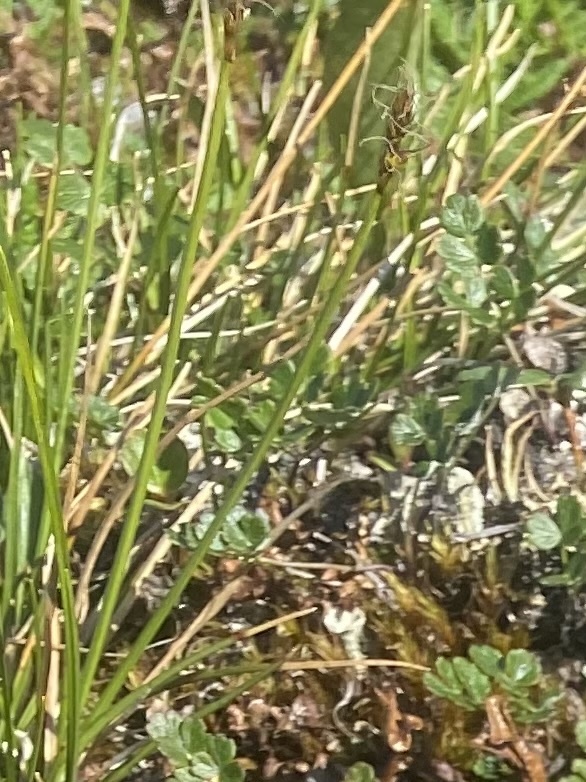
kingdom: Plantae
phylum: Tracheophyta
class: Liliopsida
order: Poales
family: Cyperaceae
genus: Carex
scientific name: Carex bigelowii
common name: Stiff sedge
